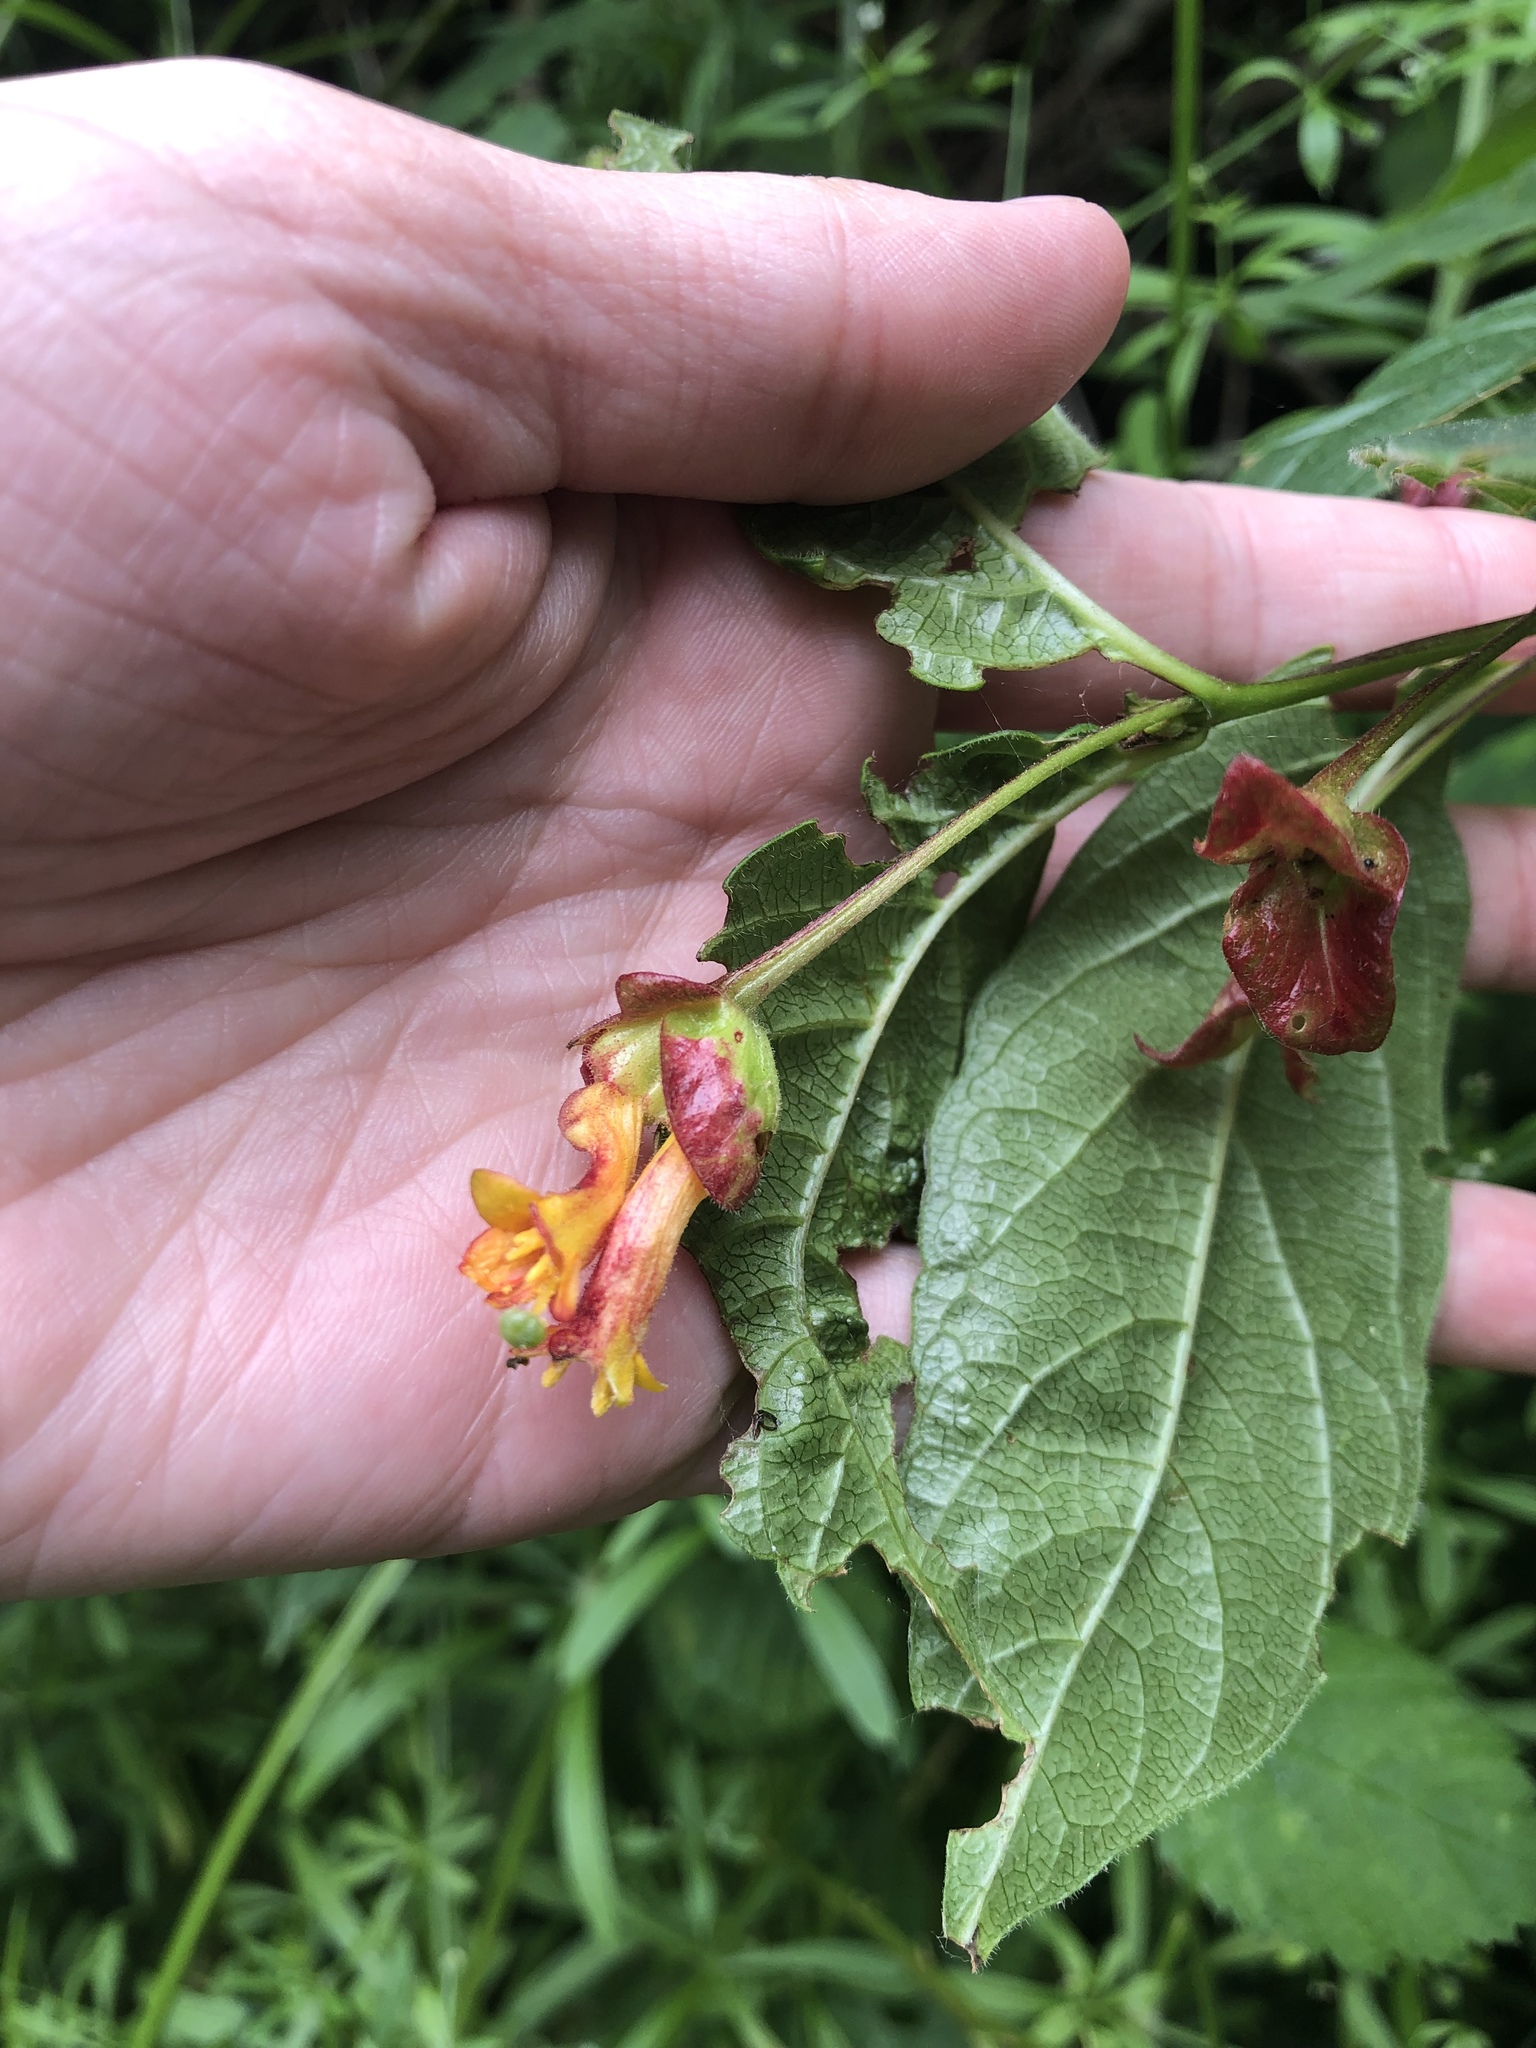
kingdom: Plantae
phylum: Tracheophyta
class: Magnoliopsida
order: Dipsacales
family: Caprifoliaceae
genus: Lonicera
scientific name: Lonicera involucrata
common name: Californian honeysuckle
